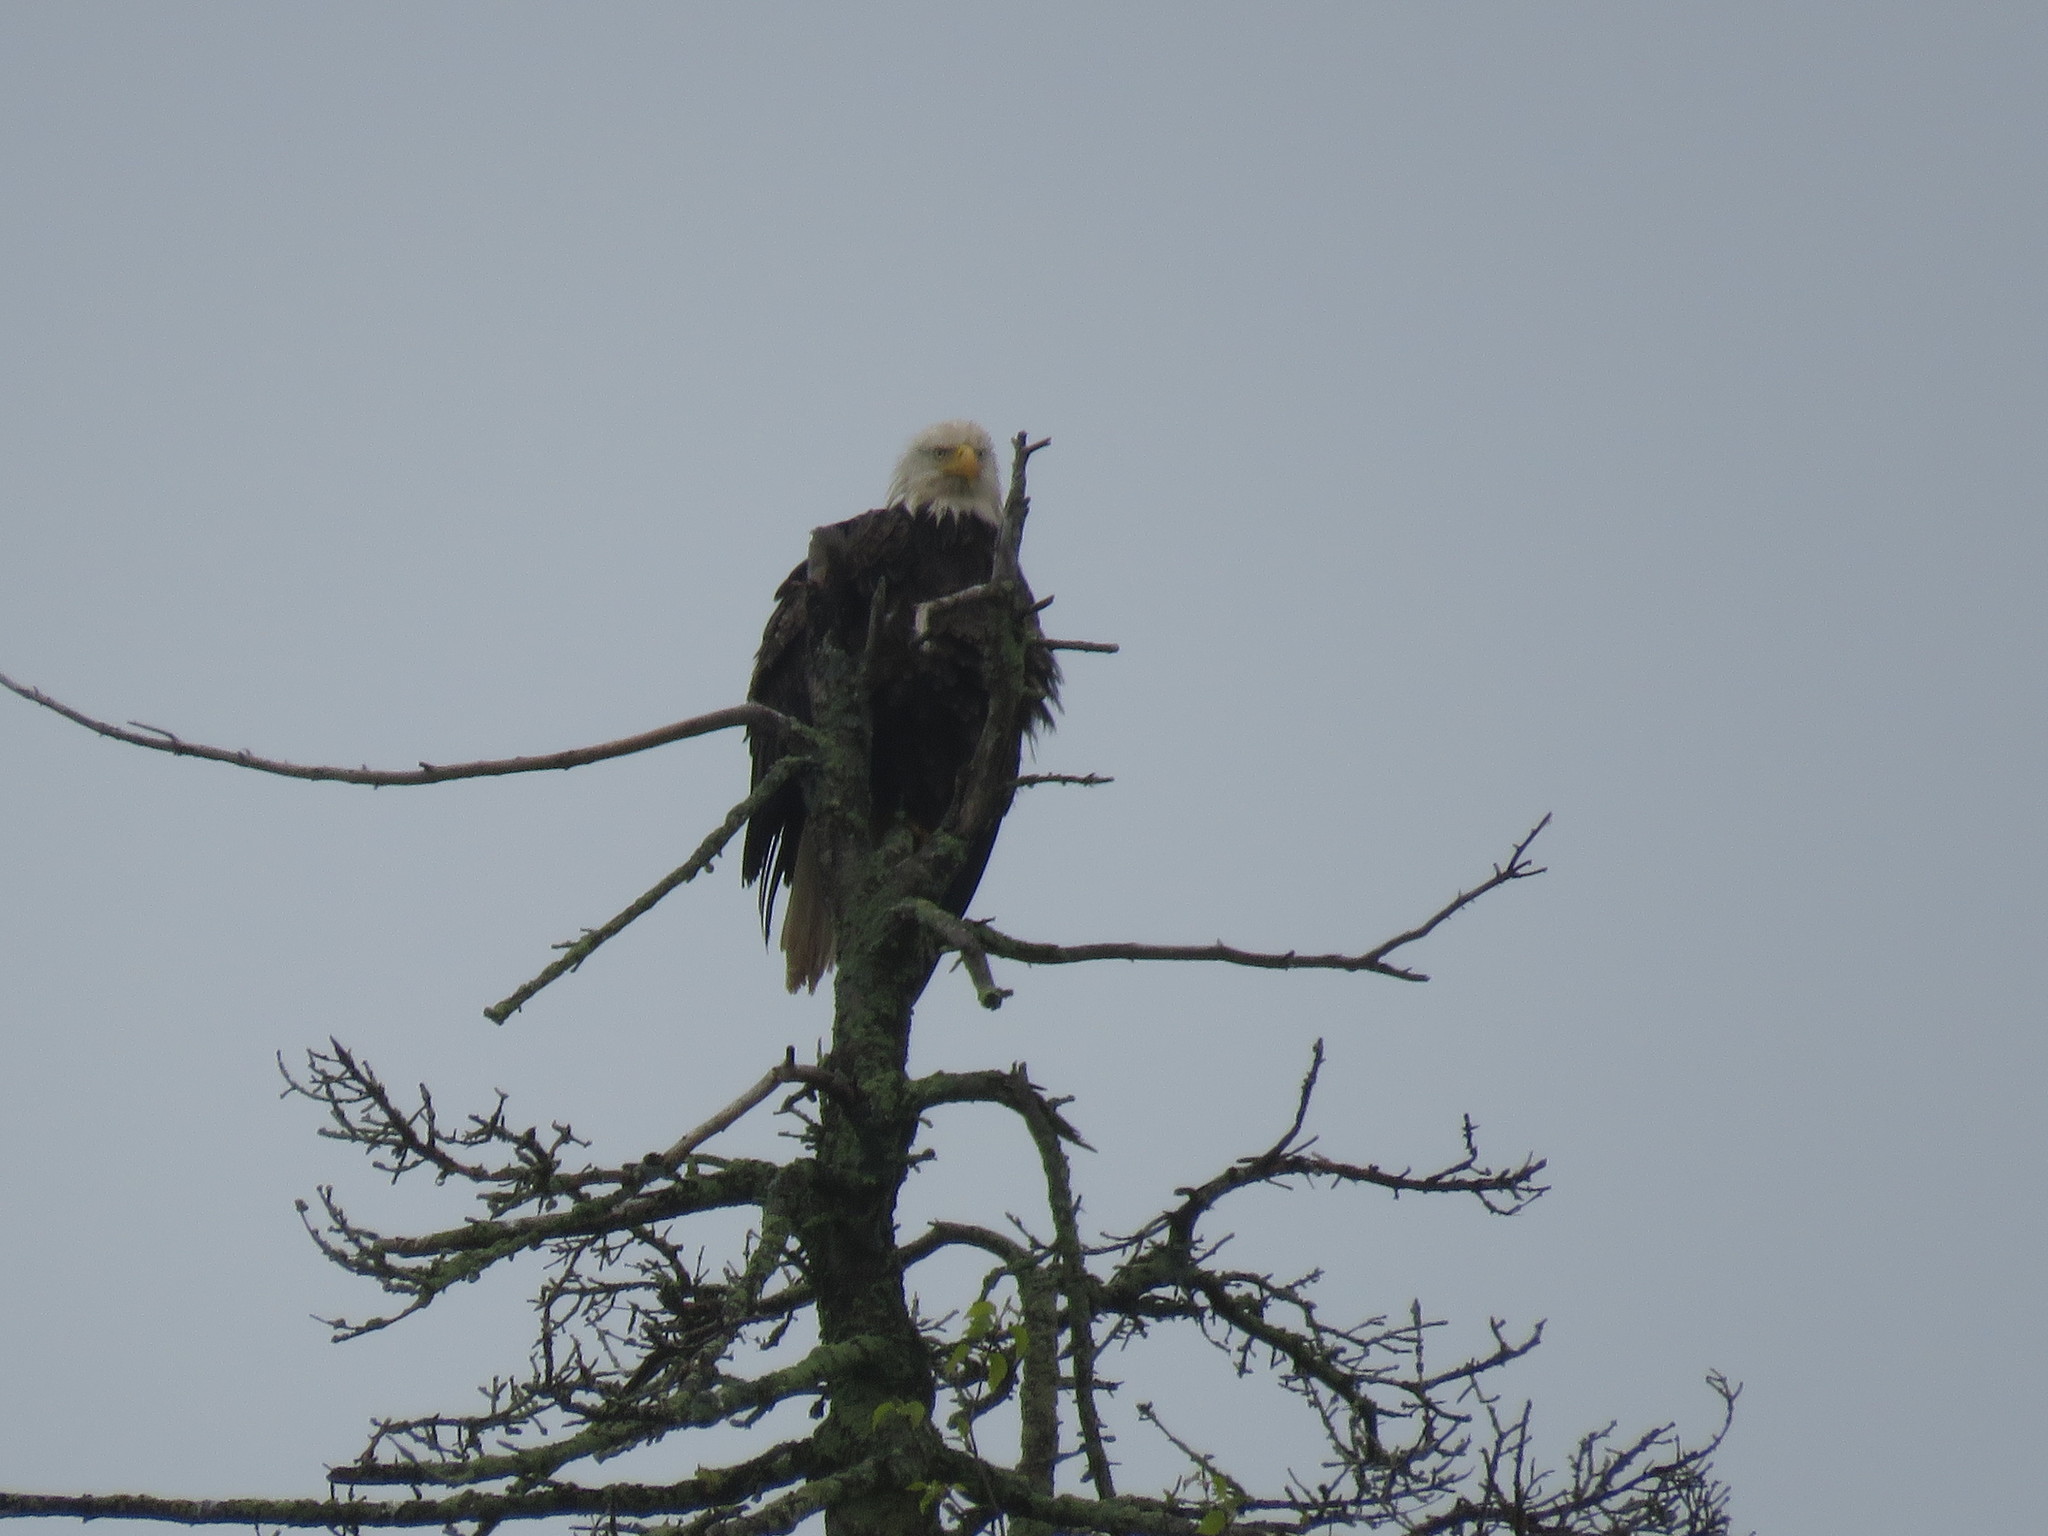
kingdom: Animalia
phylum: Chordata
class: Aves
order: Accipitriformes
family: Accipitridae
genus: Haliaeetus
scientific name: Haliaeetus leucocephalus
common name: Bald eagle
